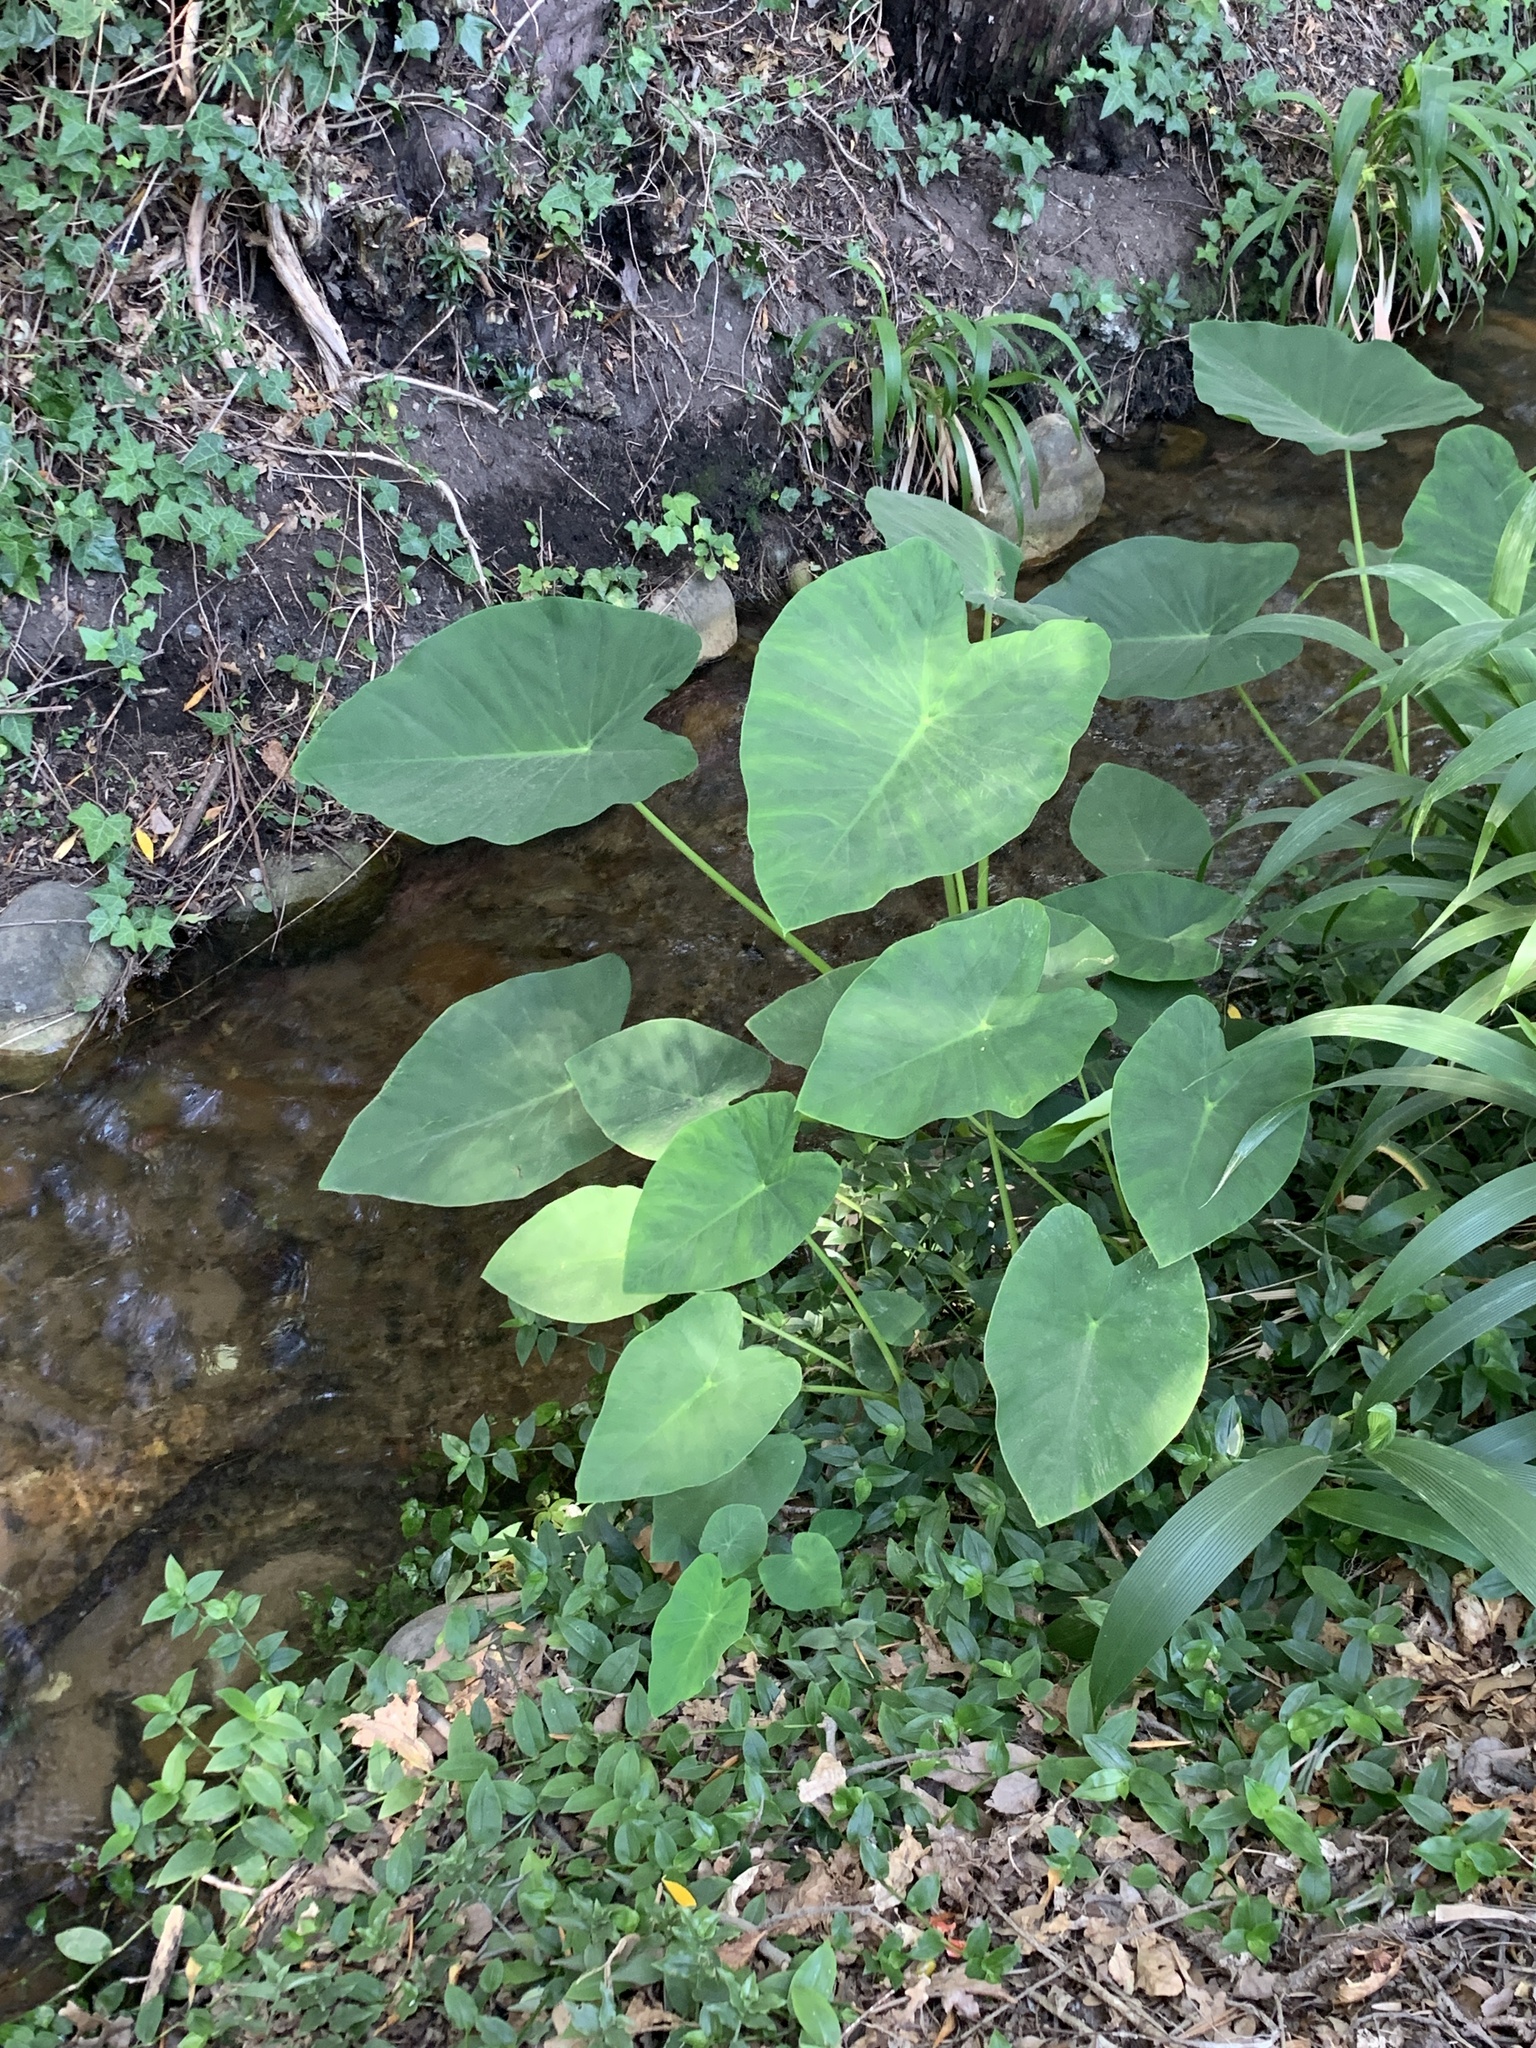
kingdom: Plantae
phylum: Tracheophyta
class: Liliopsida
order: Alismatales
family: Araceae
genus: Colocasia
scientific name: Colocasia esculenta
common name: Taro
